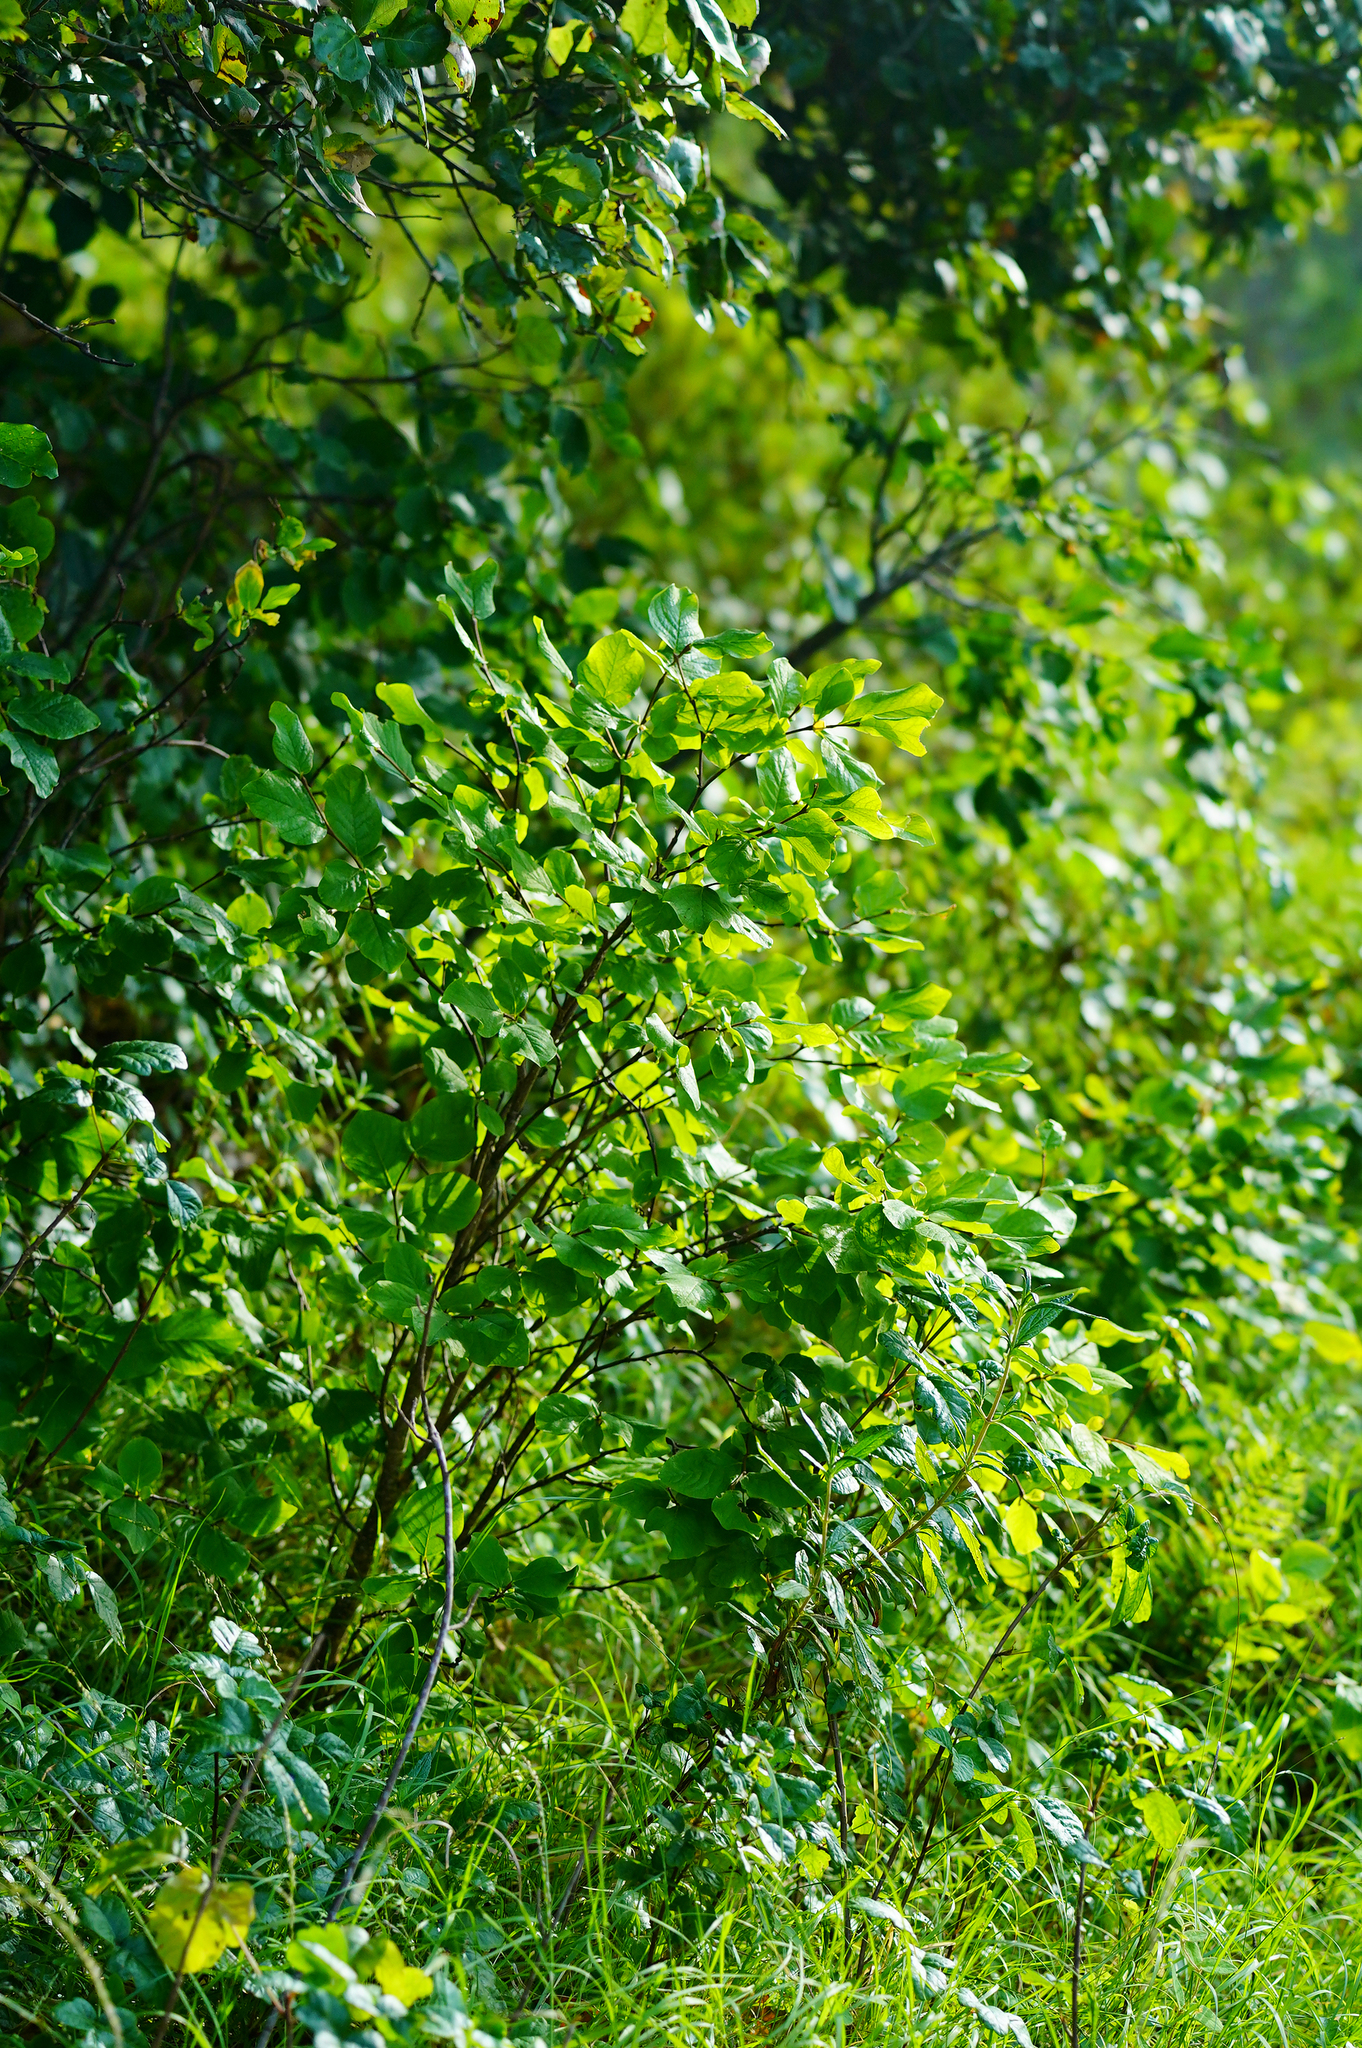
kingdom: Plantae
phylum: Tracheophyta
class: Magnoliopsida
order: Malvales
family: Thymelaeaceae
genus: Dirca
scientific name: Dirca occidentalis
